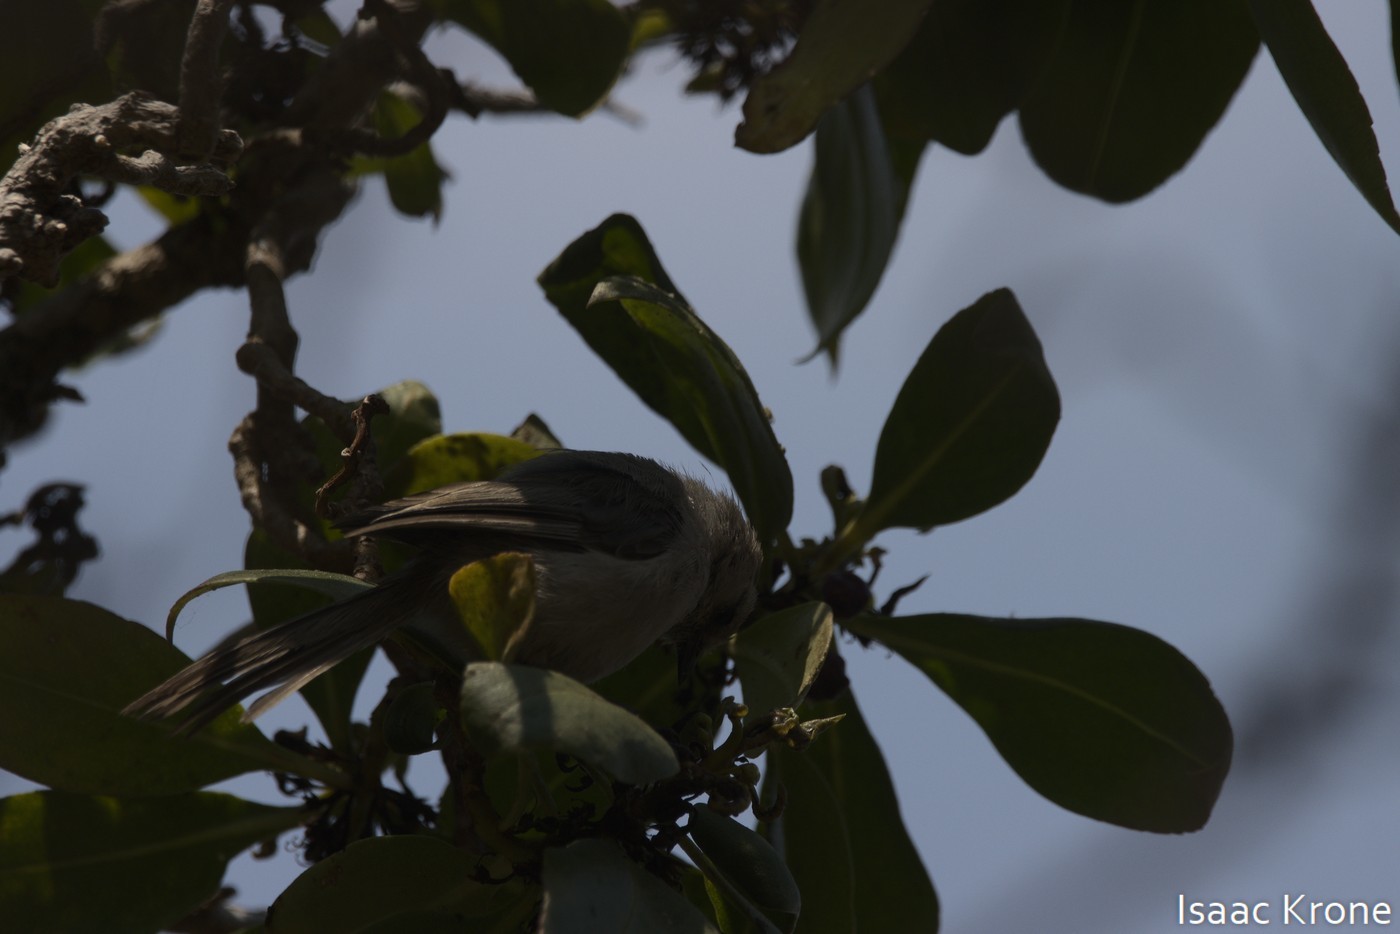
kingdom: Animalia
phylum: Chordata
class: Aves
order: Passeriformes
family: Aegithalidae
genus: Psaltriparus
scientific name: Psaltriparus minimus
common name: American bushtit
